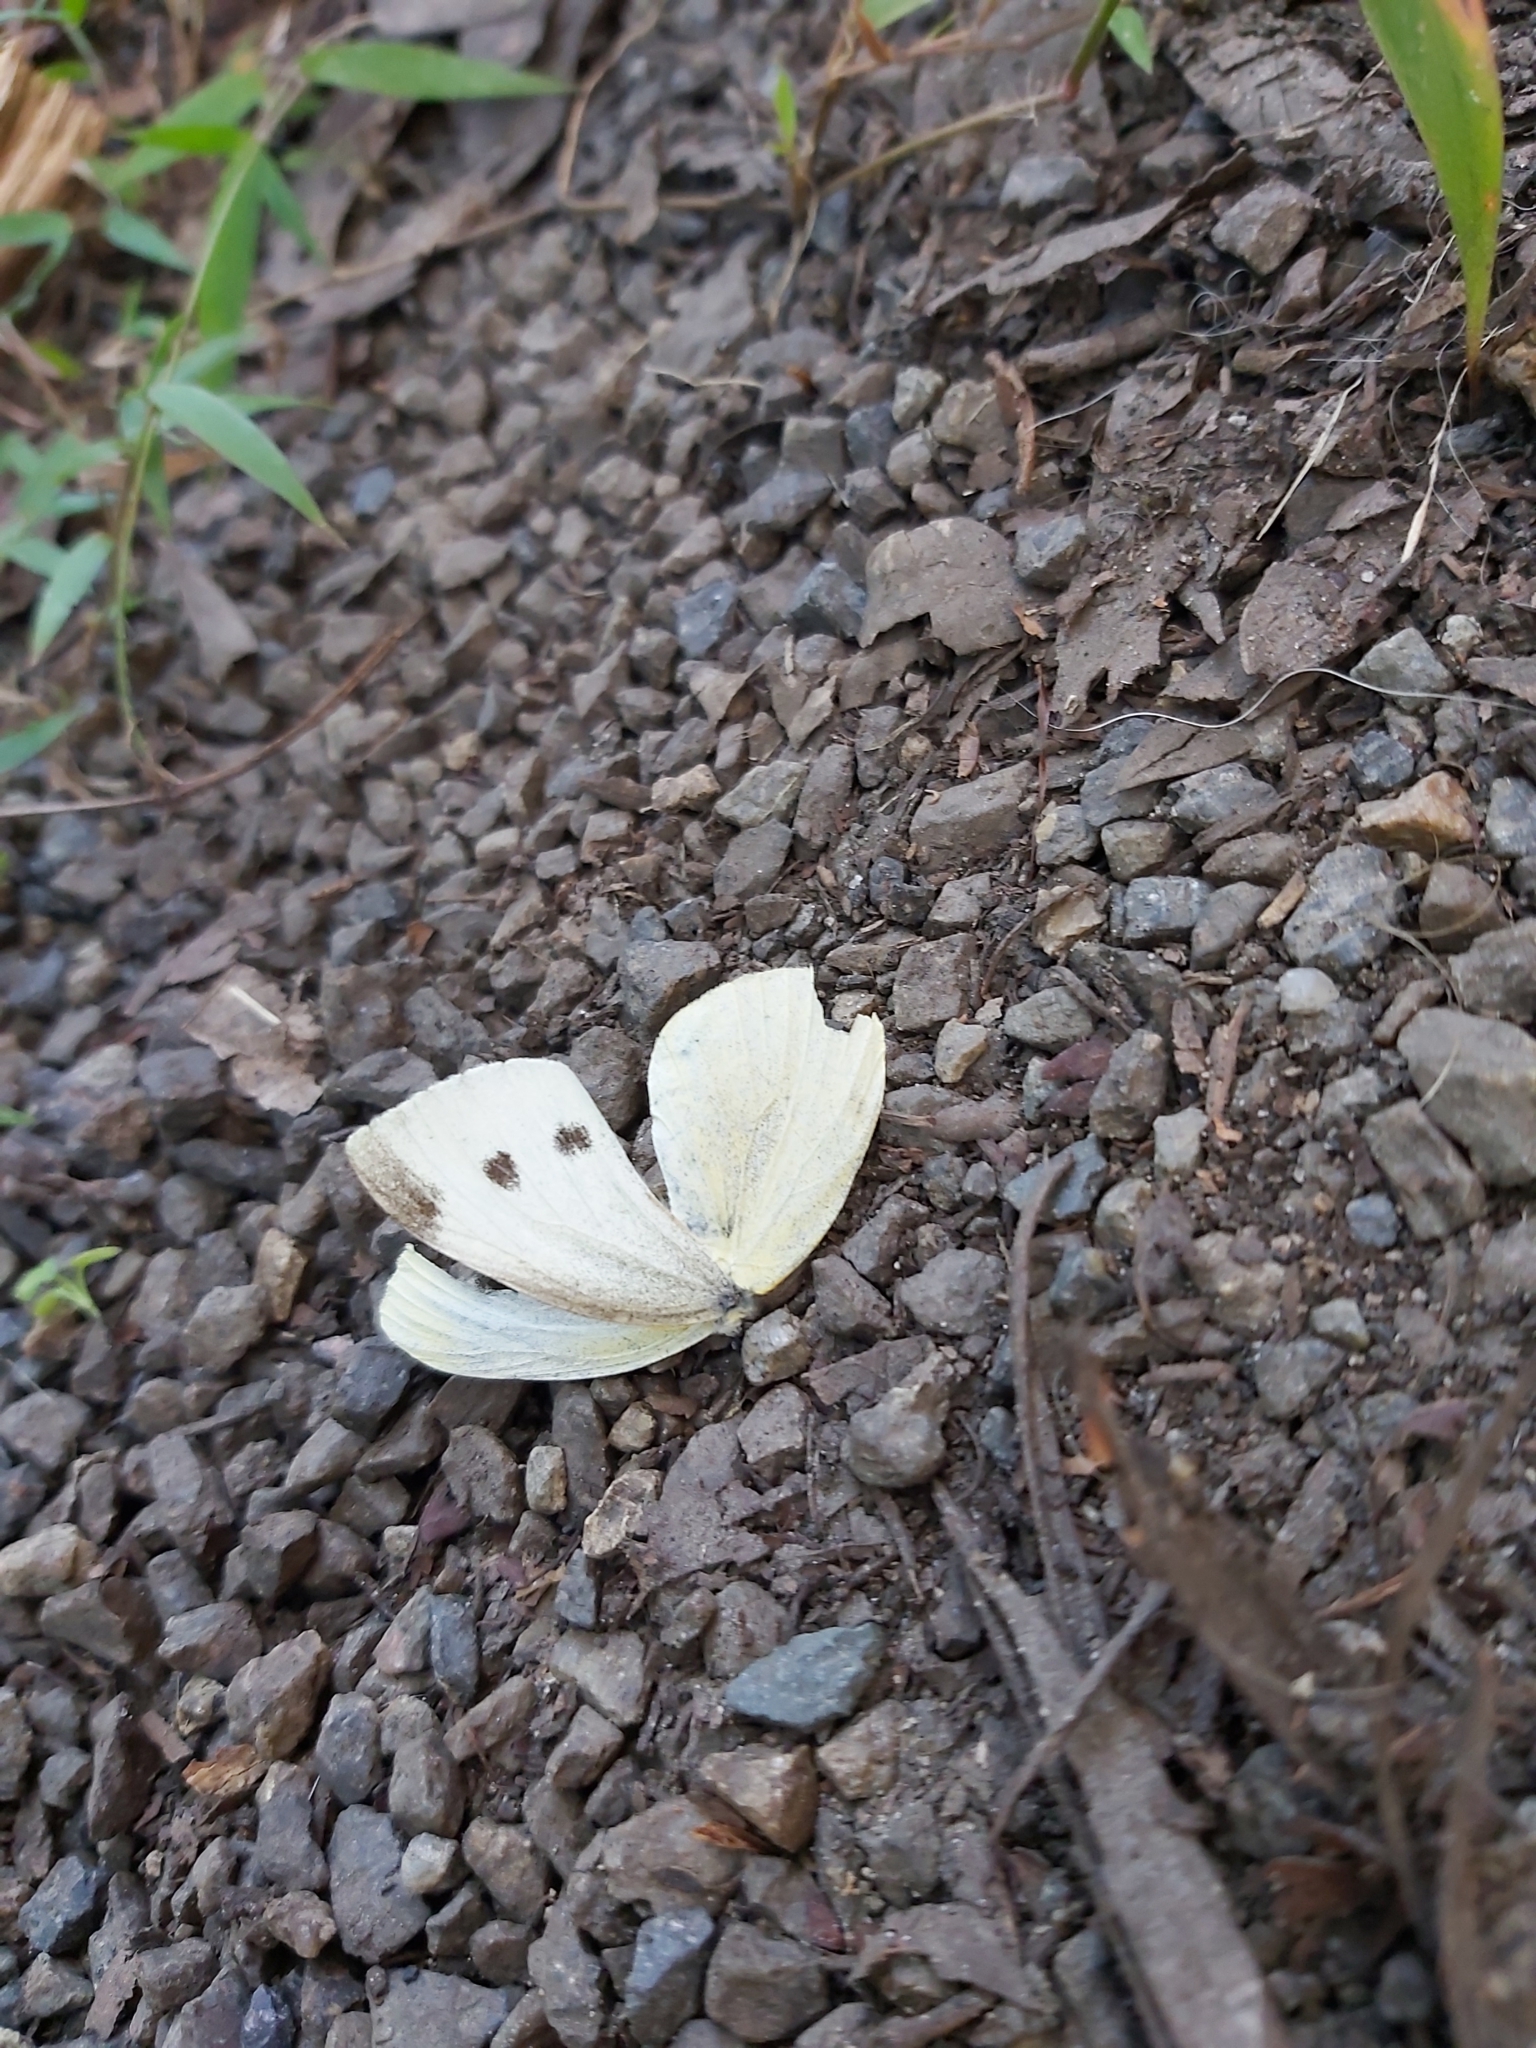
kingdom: Animalia
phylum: Arthropoda
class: Insecta
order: Lepidoptera
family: Pieridae
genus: Pieris
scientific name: Pieris rapae
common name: Small white
